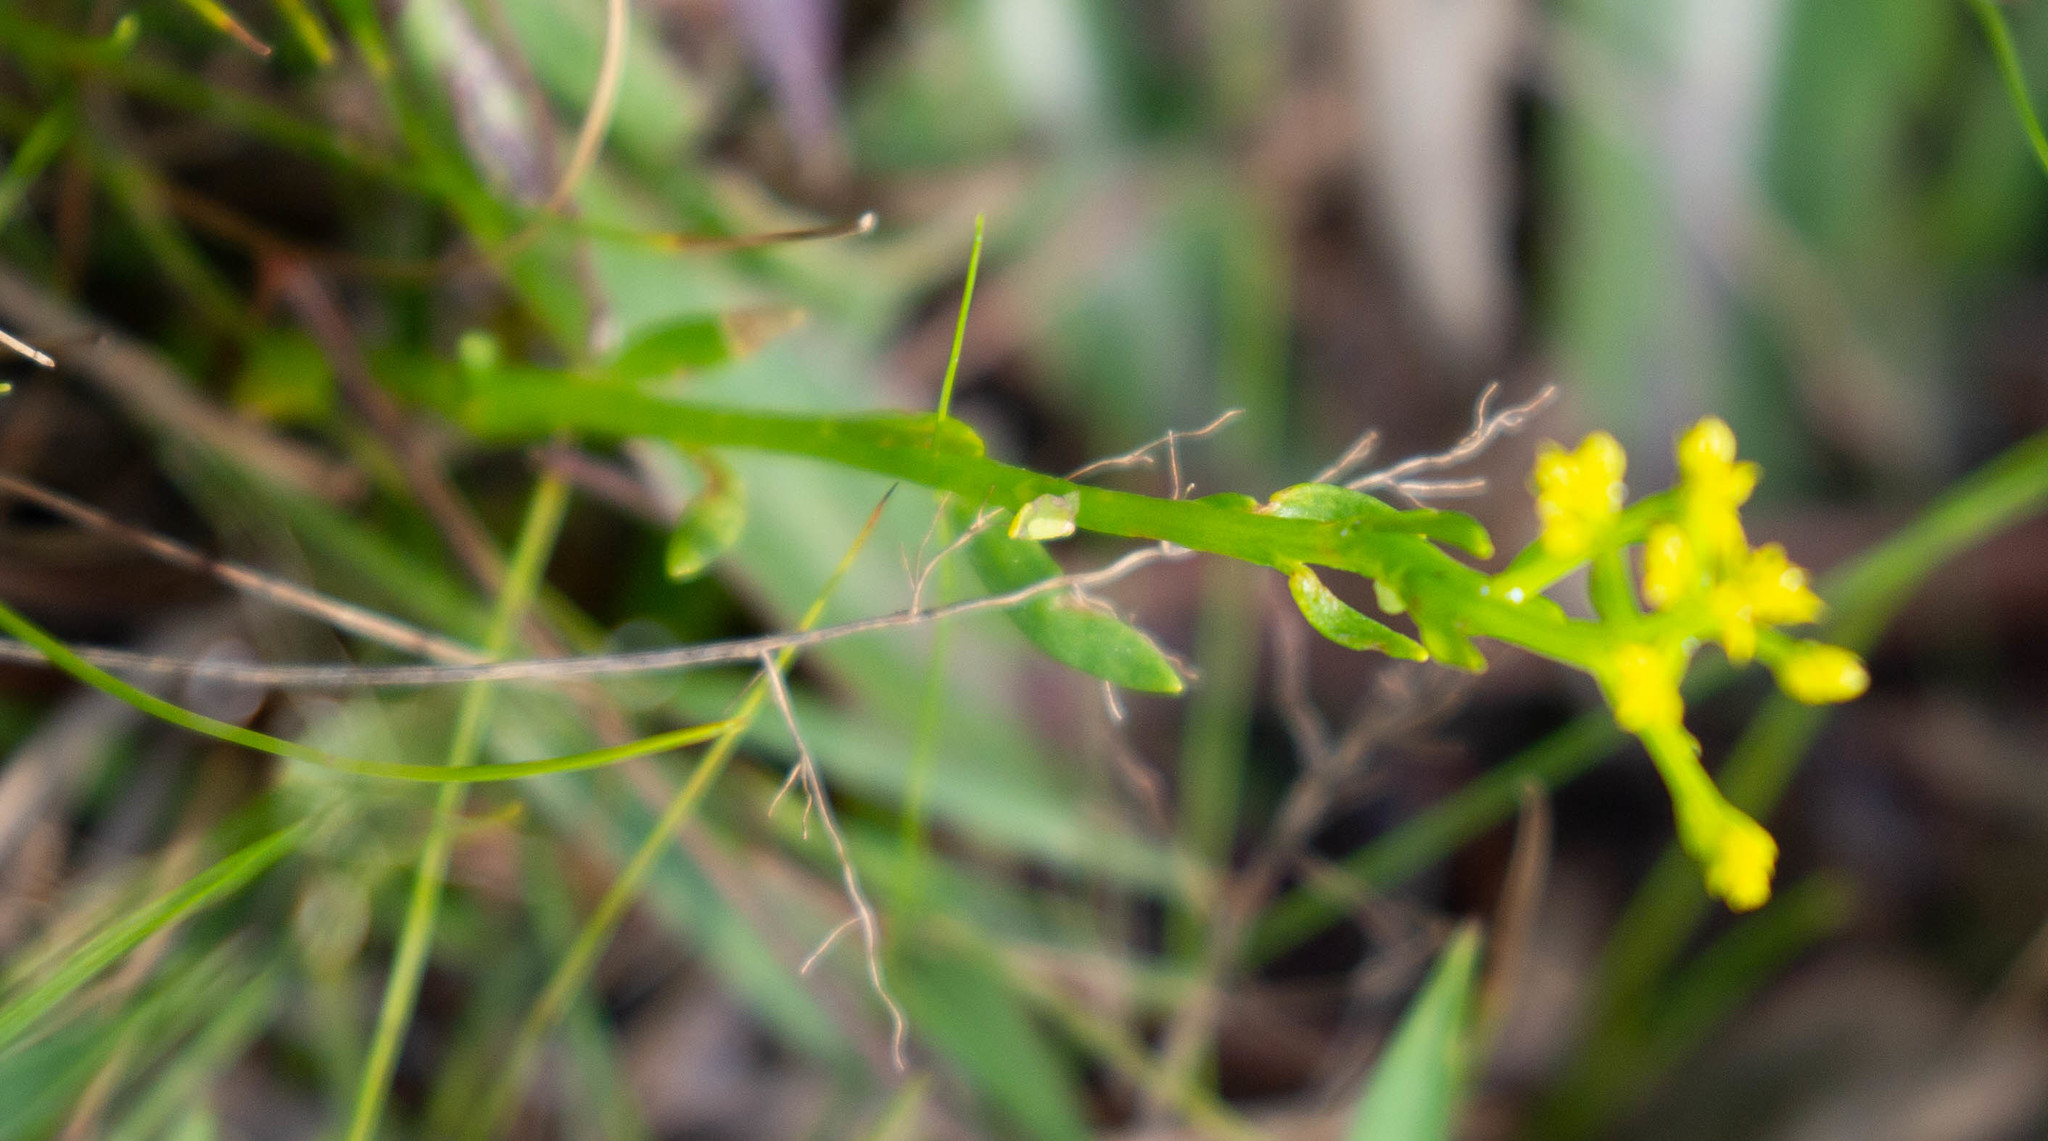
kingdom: Plantae
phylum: Tracheophyta
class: Magnoliopsida
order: Fabales
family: Polygalaceae
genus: Polygala
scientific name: Polygala ramosa
